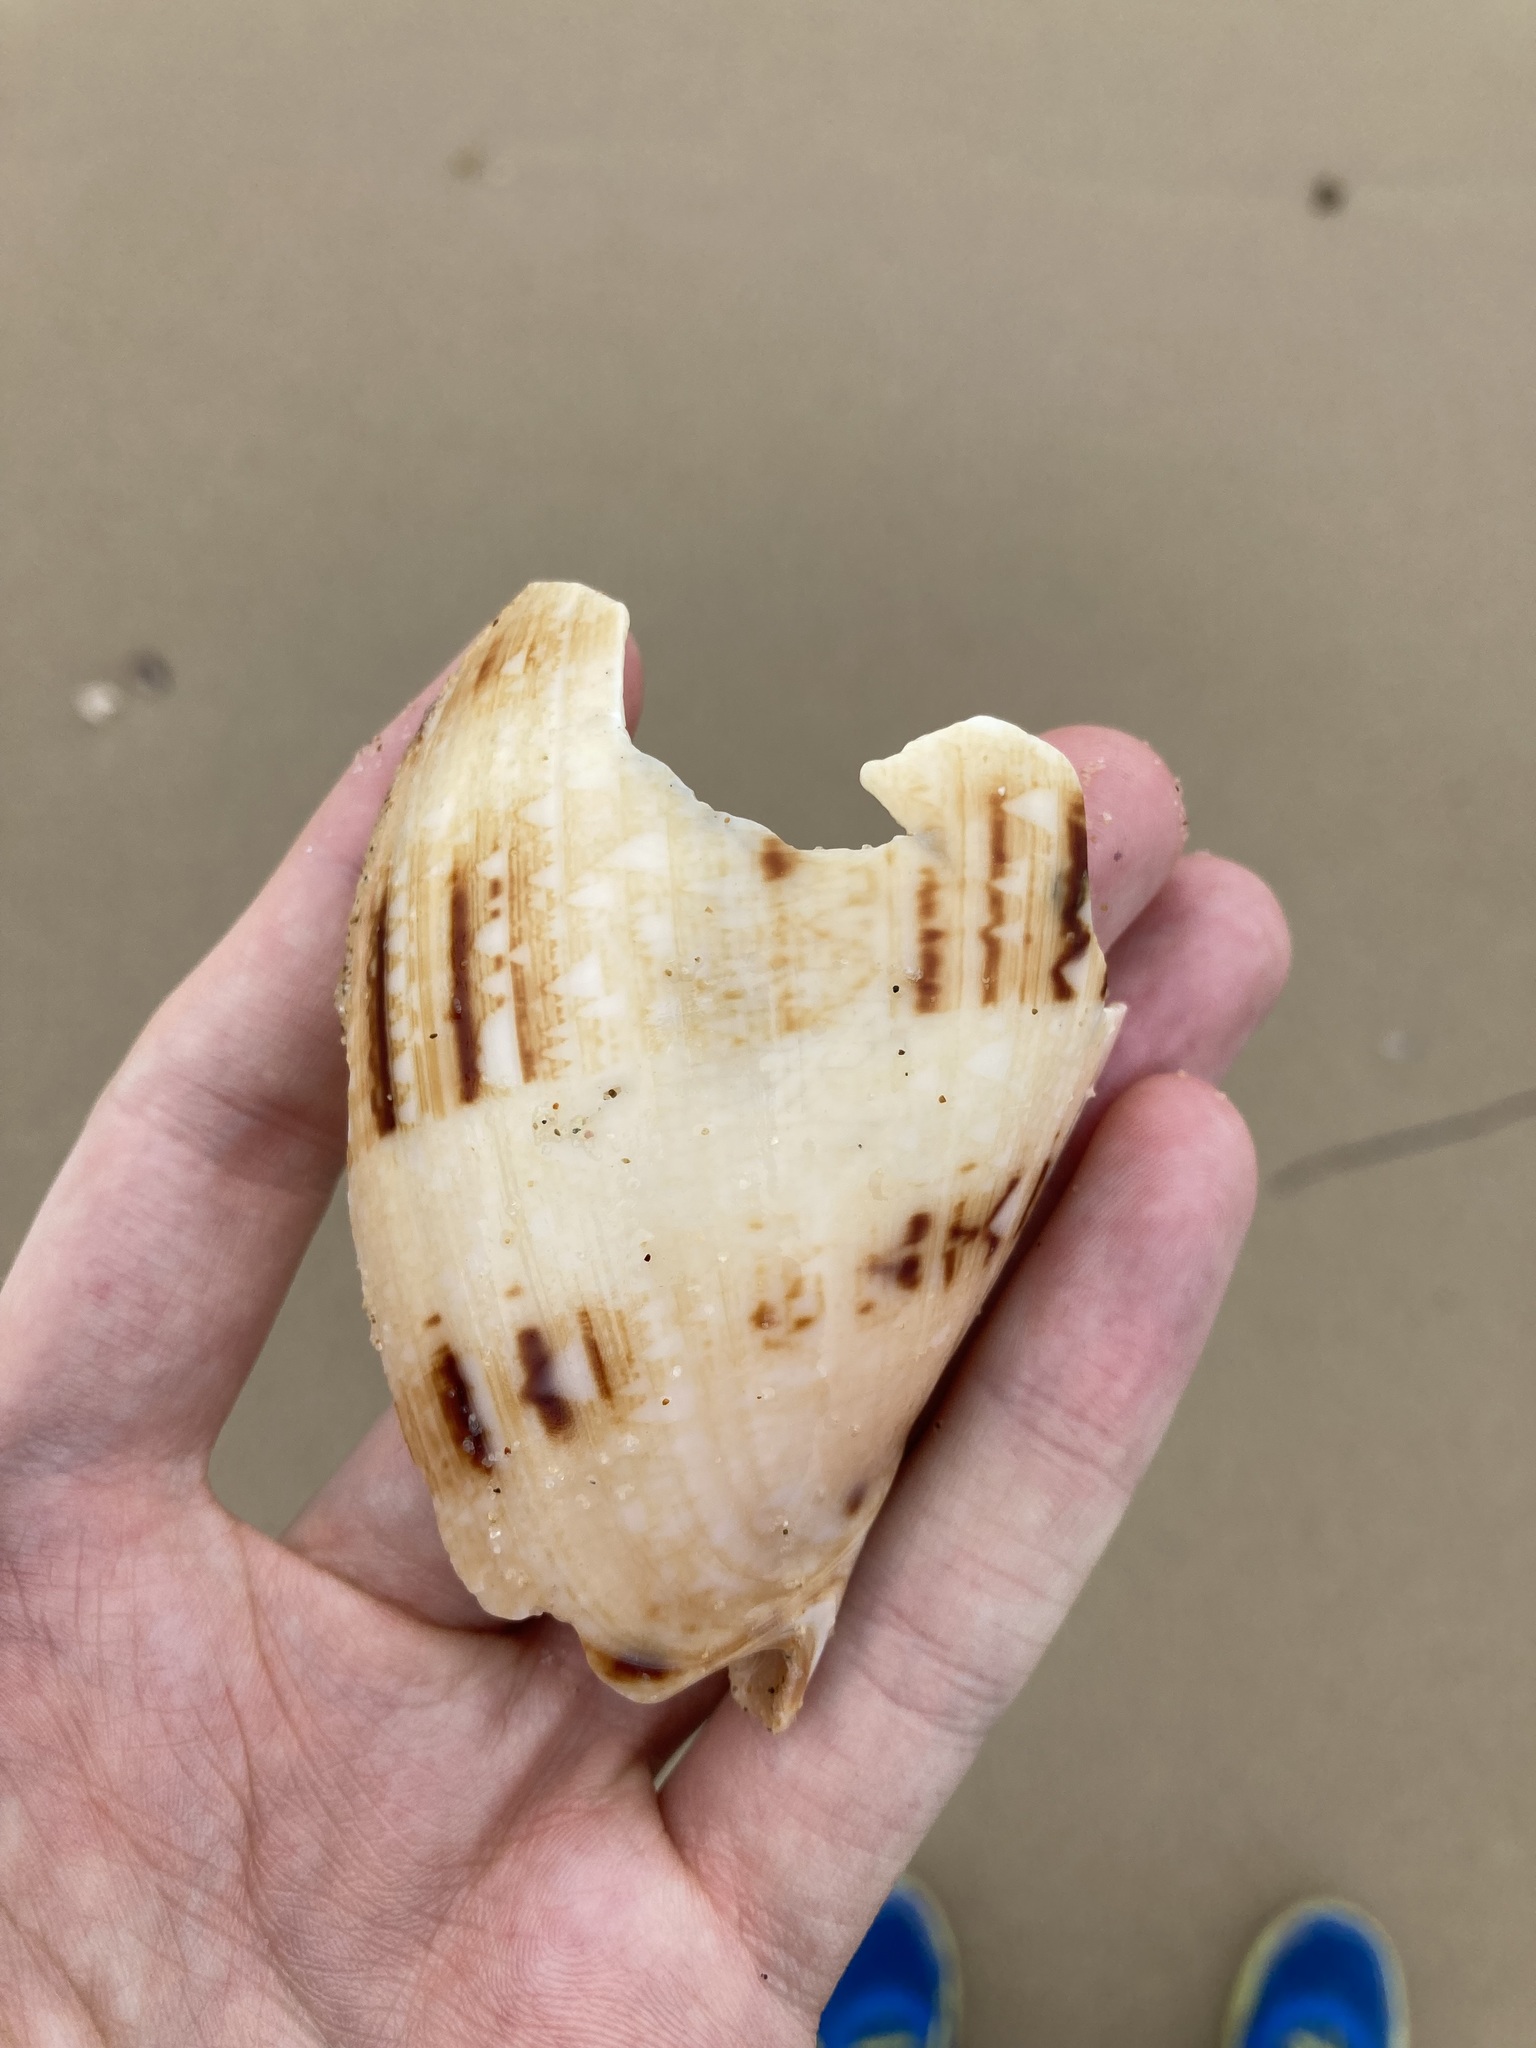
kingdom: Animalia
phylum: Mollusca
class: Gastropoda
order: Neogastropoda
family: Volutidae
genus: Cymbiola
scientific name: Cymbiola magnifica
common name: Magnificent volute
